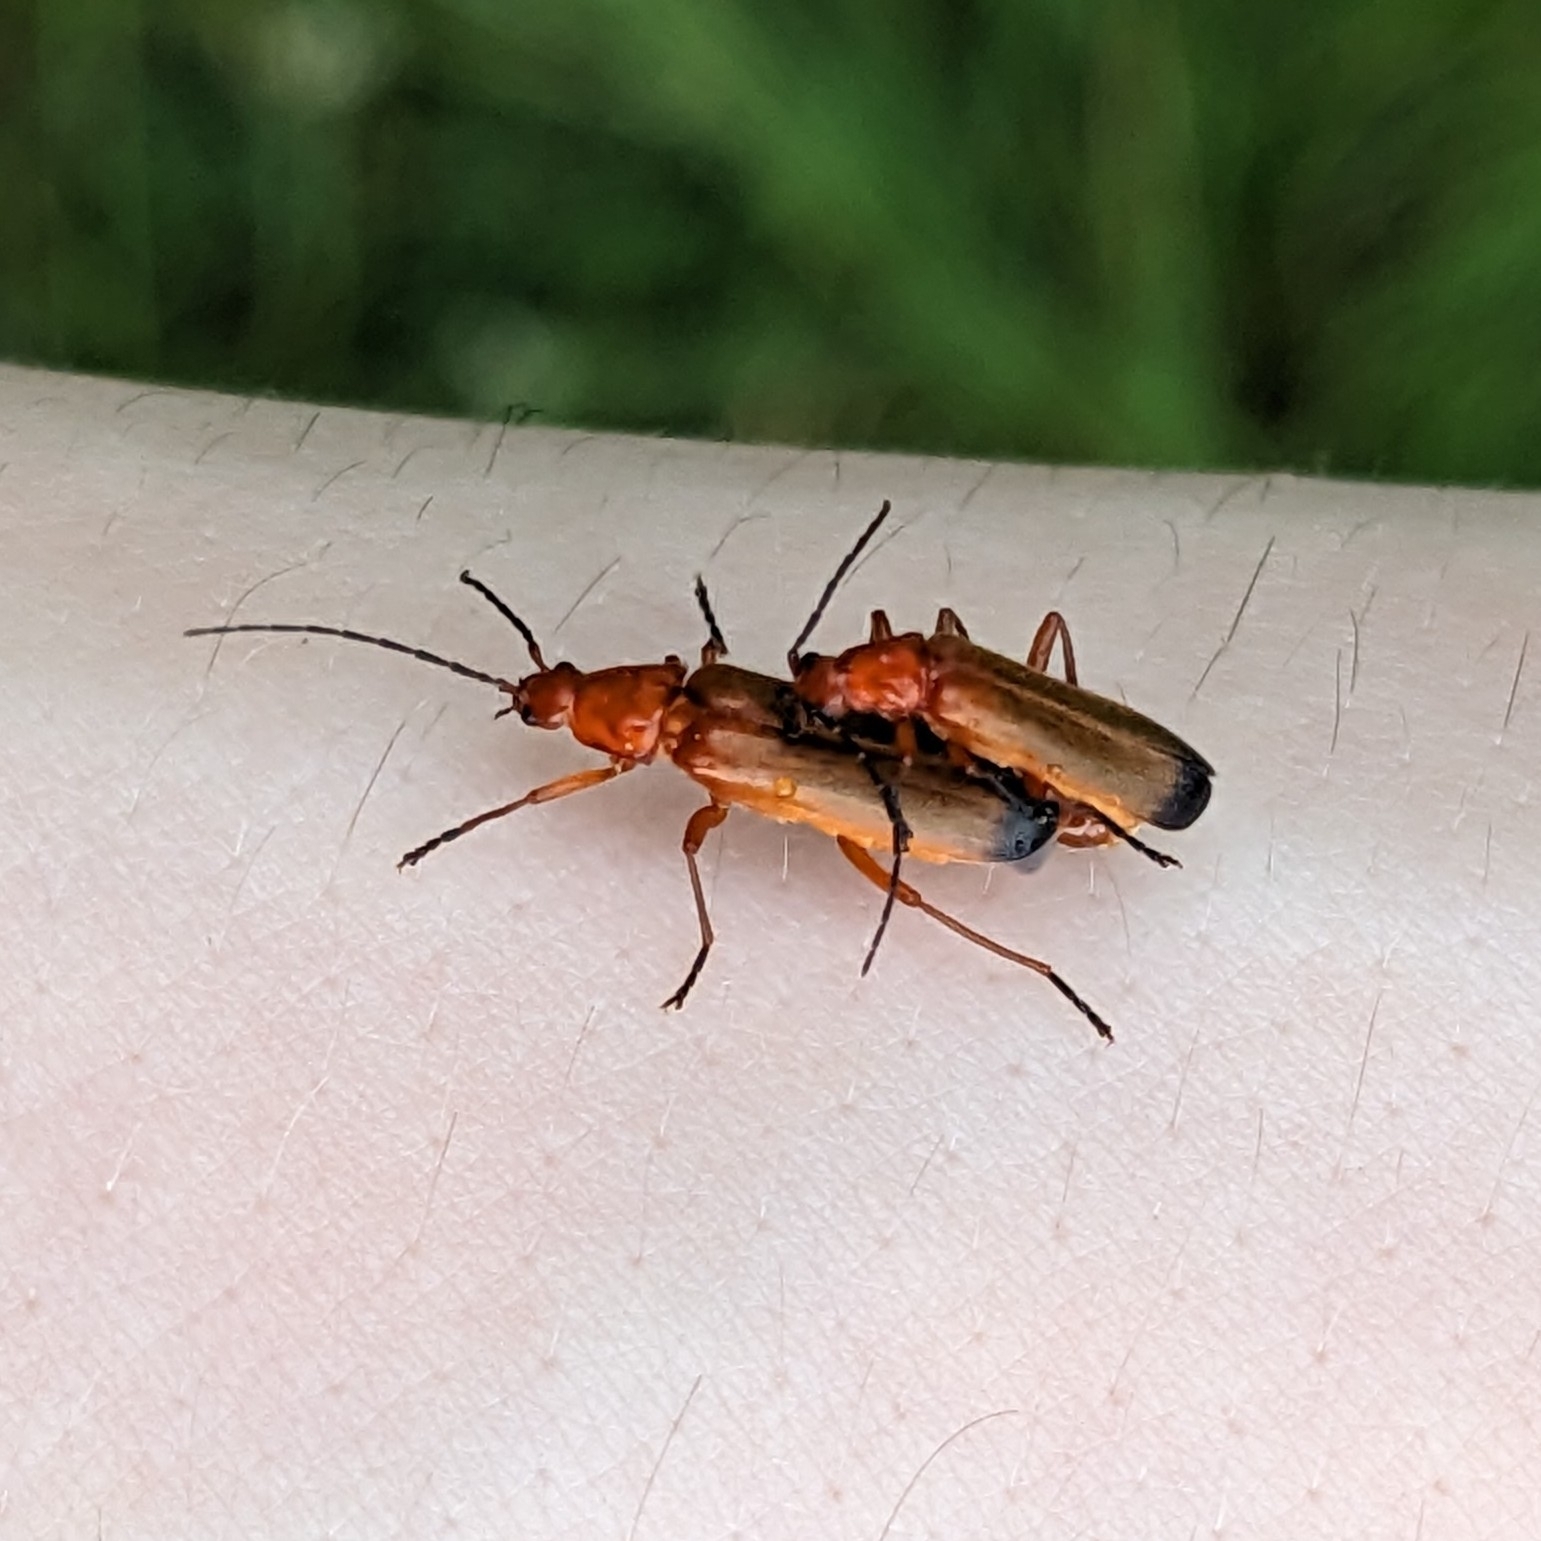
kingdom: Animalia
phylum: Arthropoda
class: Insecta
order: Coleoptera
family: Cantharidae
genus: Rhagonycha
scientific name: Rhagonycha fulva
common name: Common red soldier beetle
